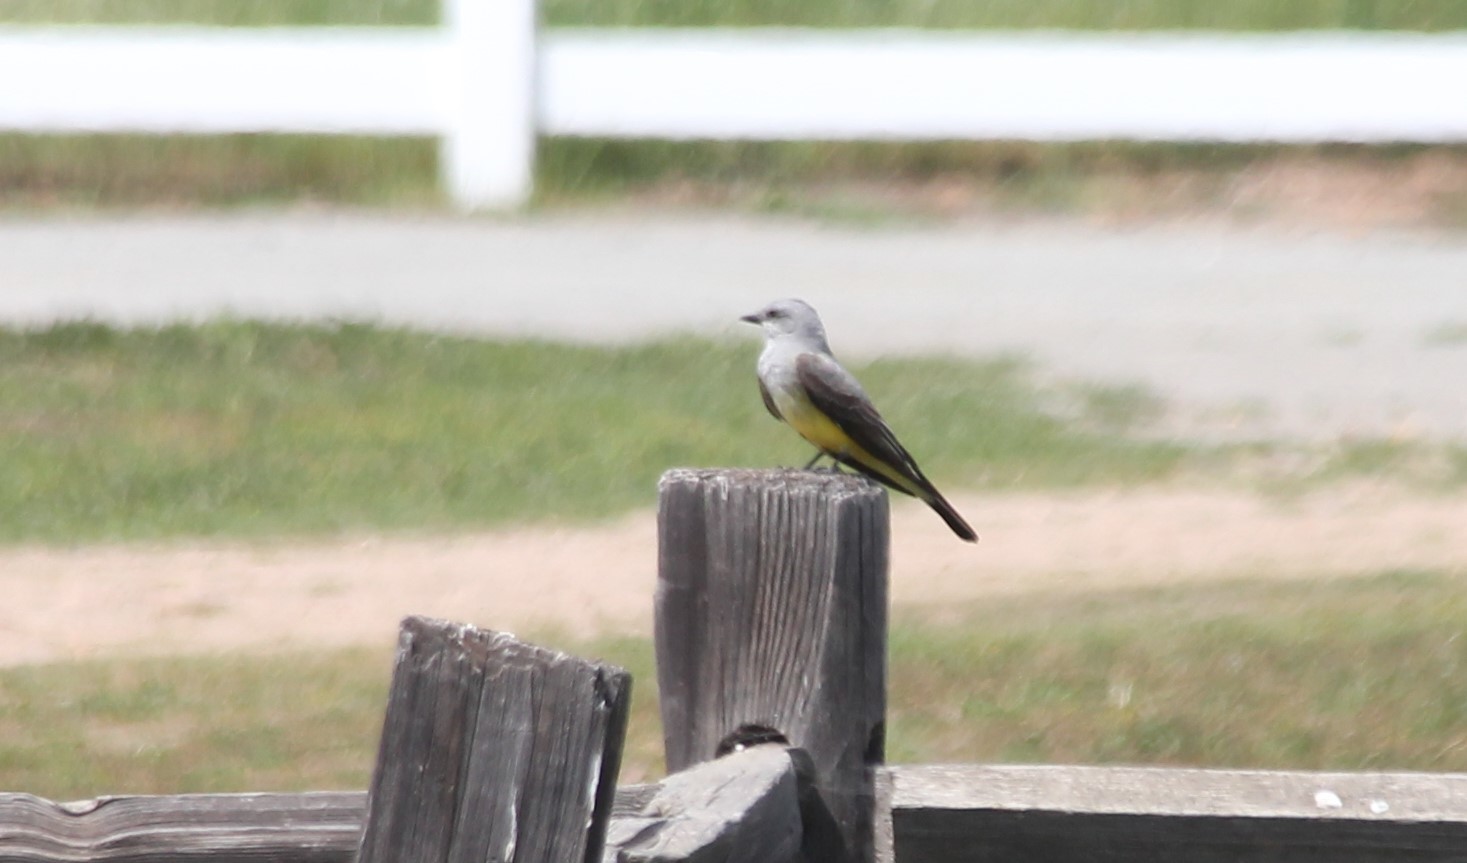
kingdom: Animalia
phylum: Chordata
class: Aves
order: Passeriformes
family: Tyrannidae
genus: Tyrannus
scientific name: Tyrannus verticalis
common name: Western kingbird
